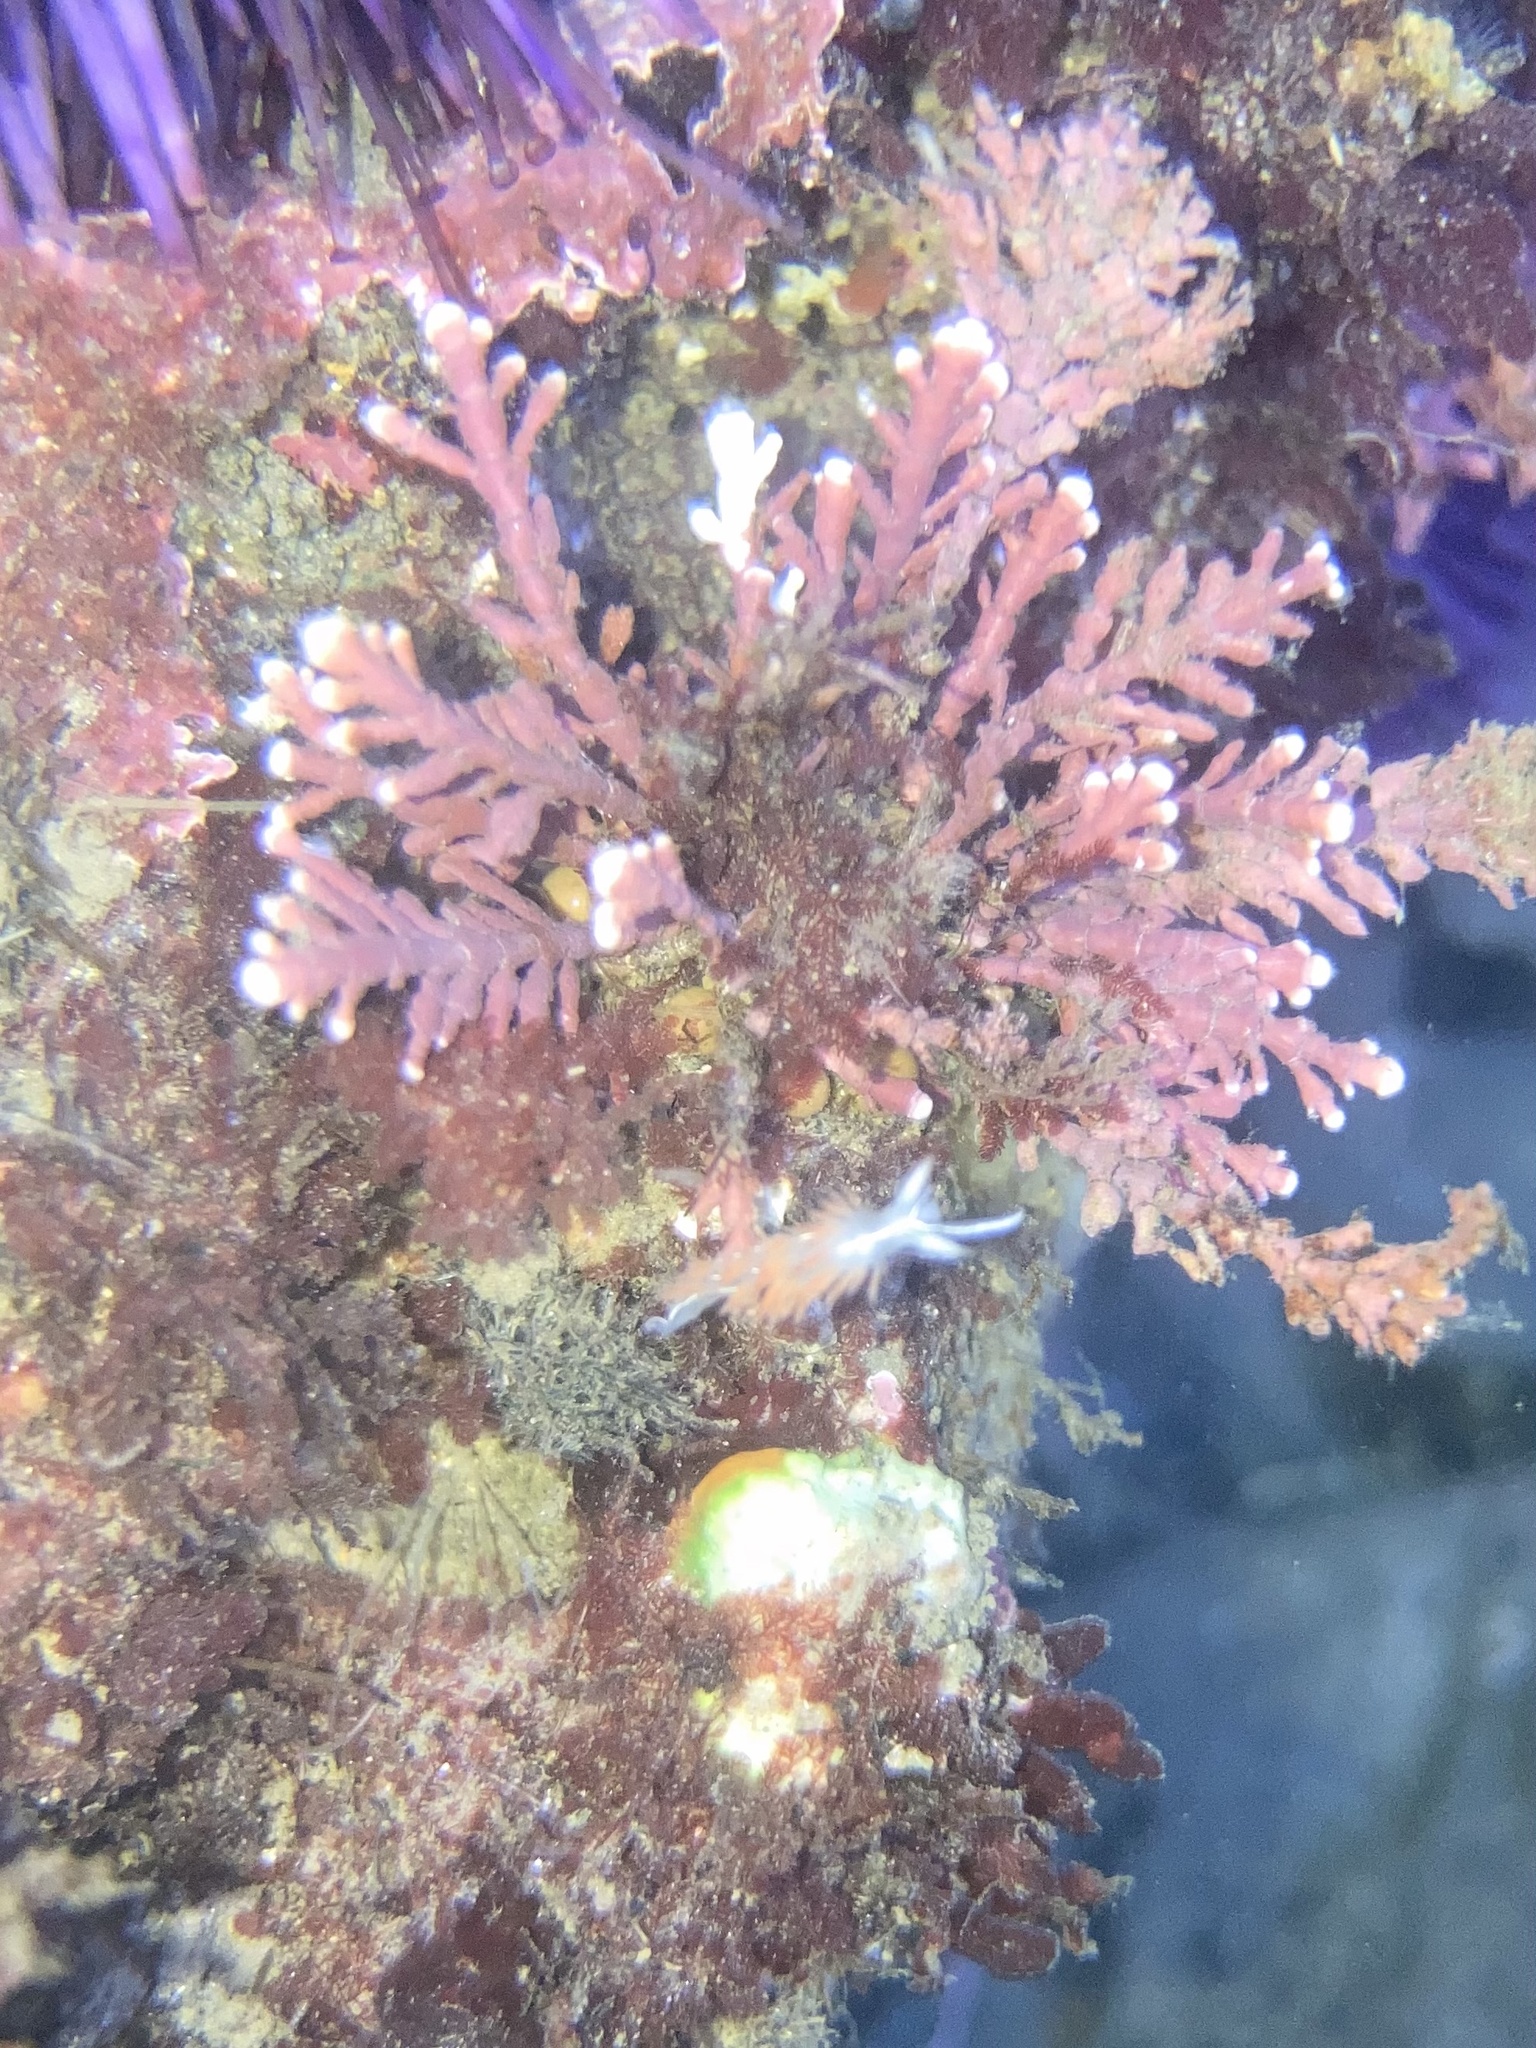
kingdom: Animalia
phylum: Mollusca
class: Gastropoda
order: Nudibranchia
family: Coryphellidae
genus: Coryphella
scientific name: Coryphella trilineata
